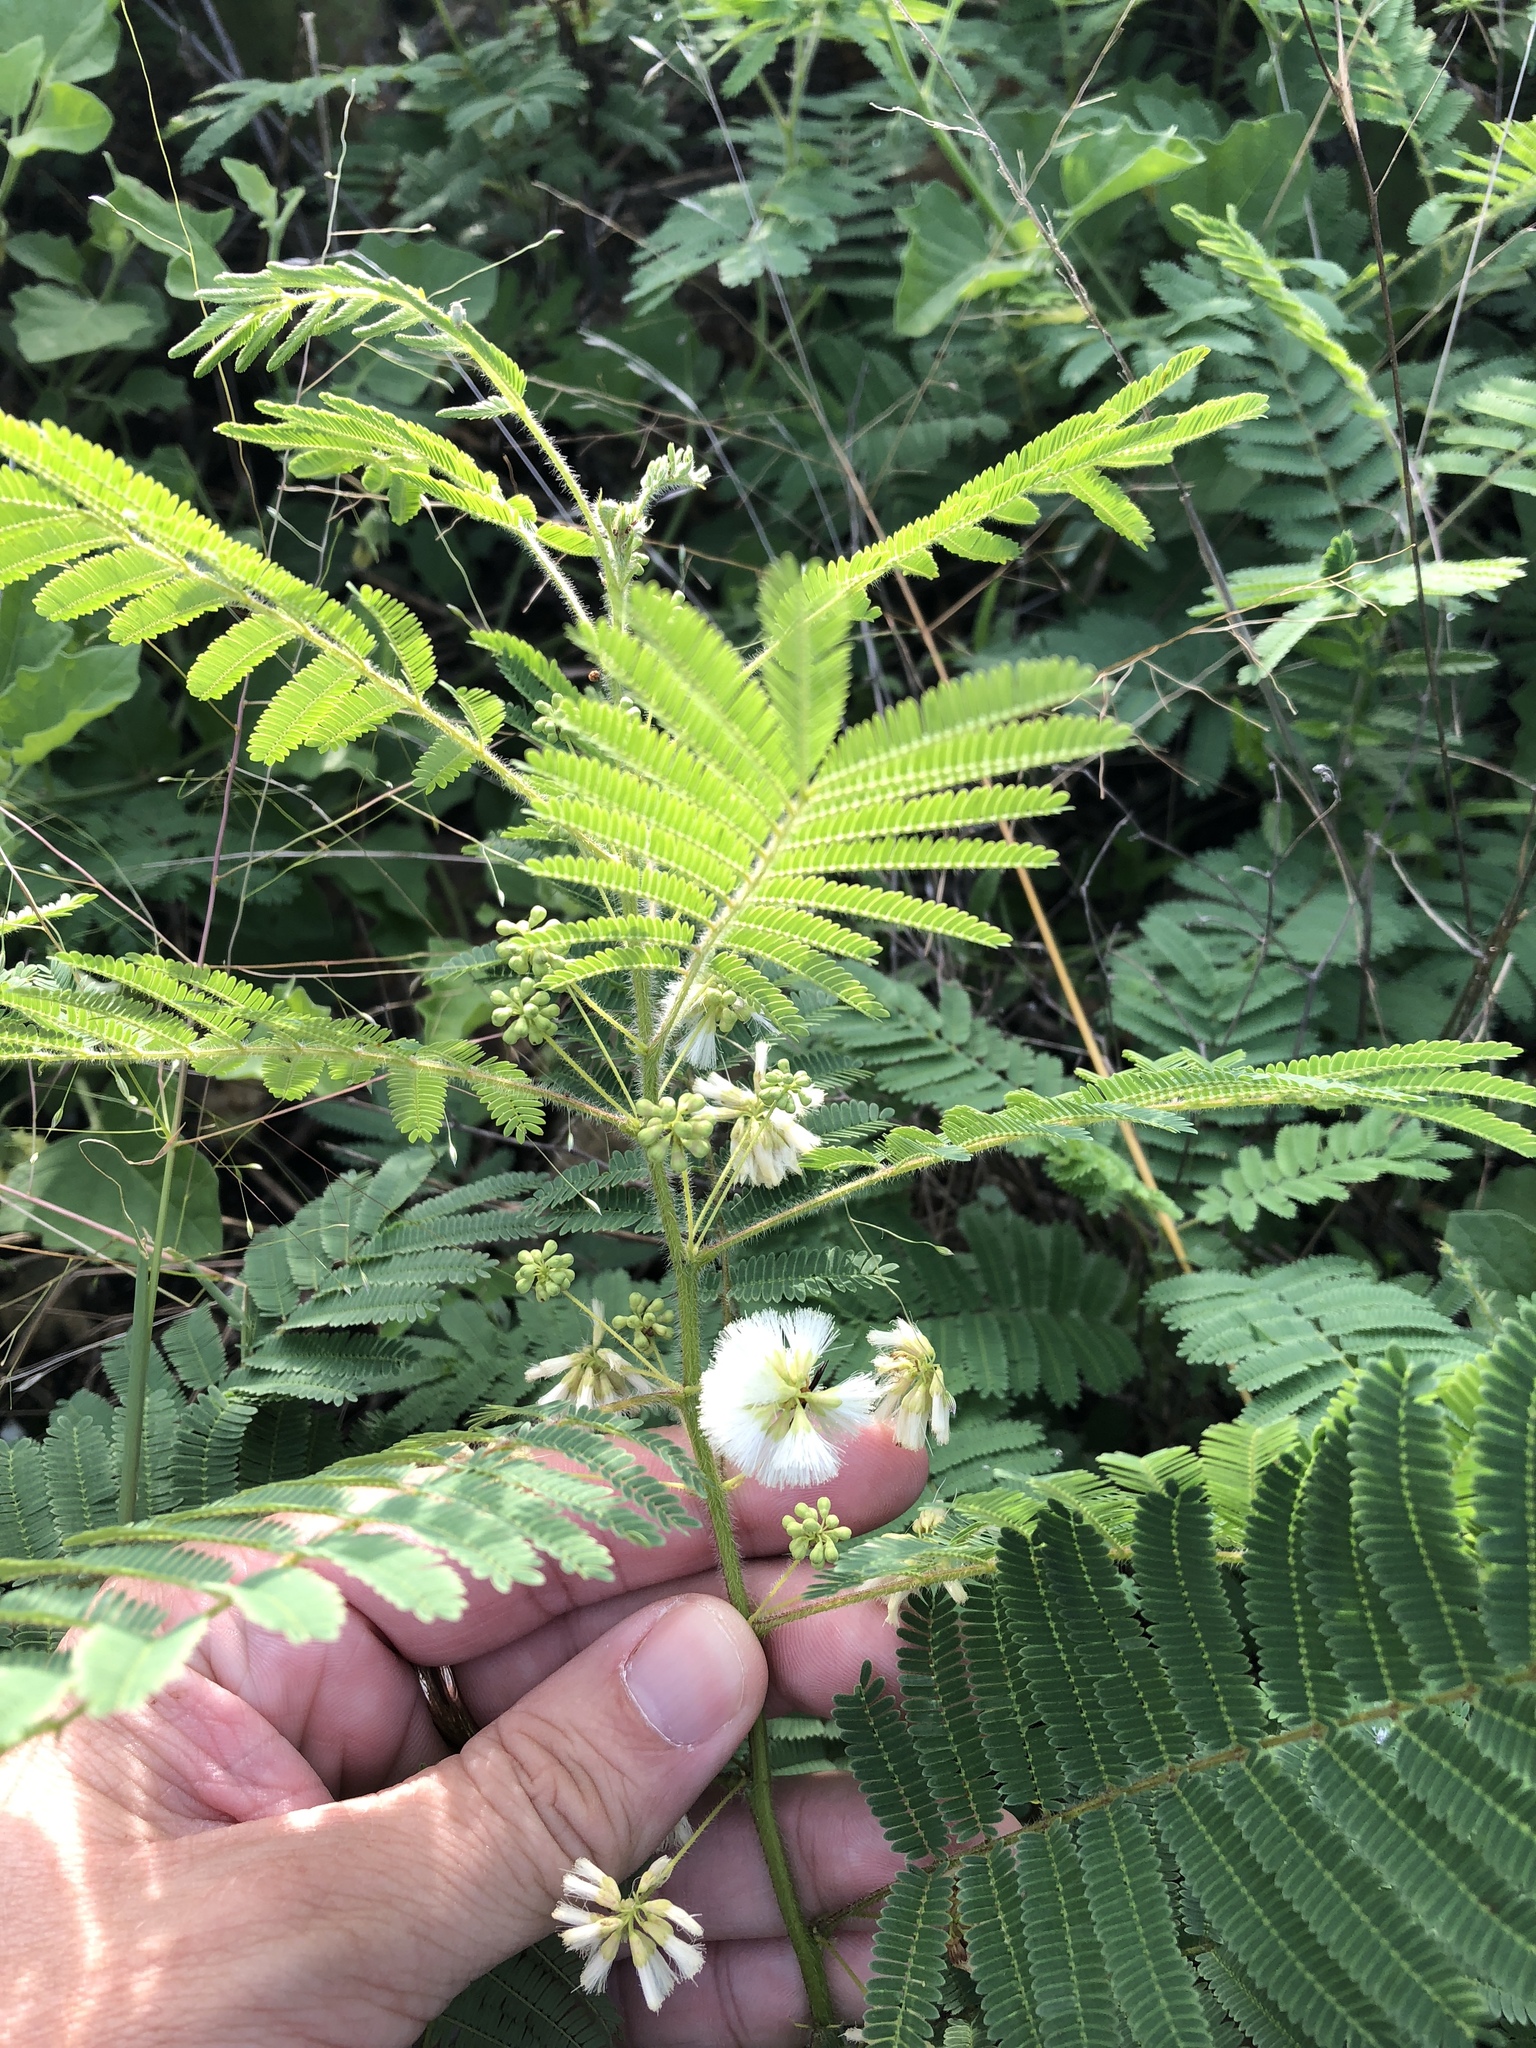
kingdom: Plantae
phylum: Tracheophyta
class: Magnoliopsida
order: Fabales
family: Fabaceae
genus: Acaciella
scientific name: Acaciella angustissima
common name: Prairie acacia
